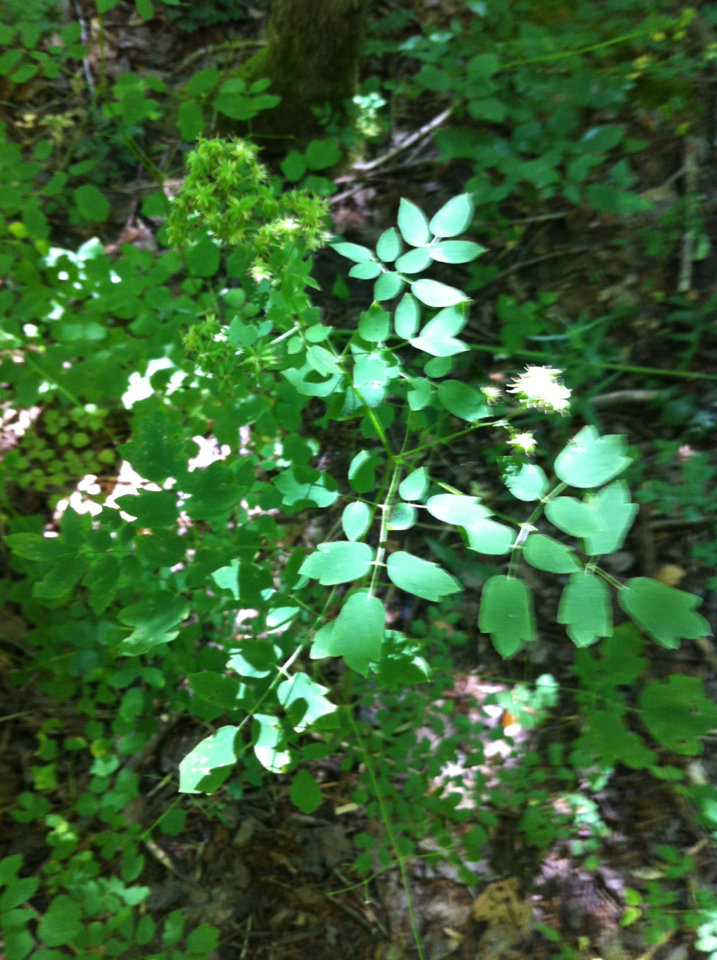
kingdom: Plantae
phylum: Tracheophyta
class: Magnoliopsida
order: Ranunculales
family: Ranunculaceae
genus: Thalictrum
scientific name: Thalictrum pubescens
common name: King-of-the-meadow
